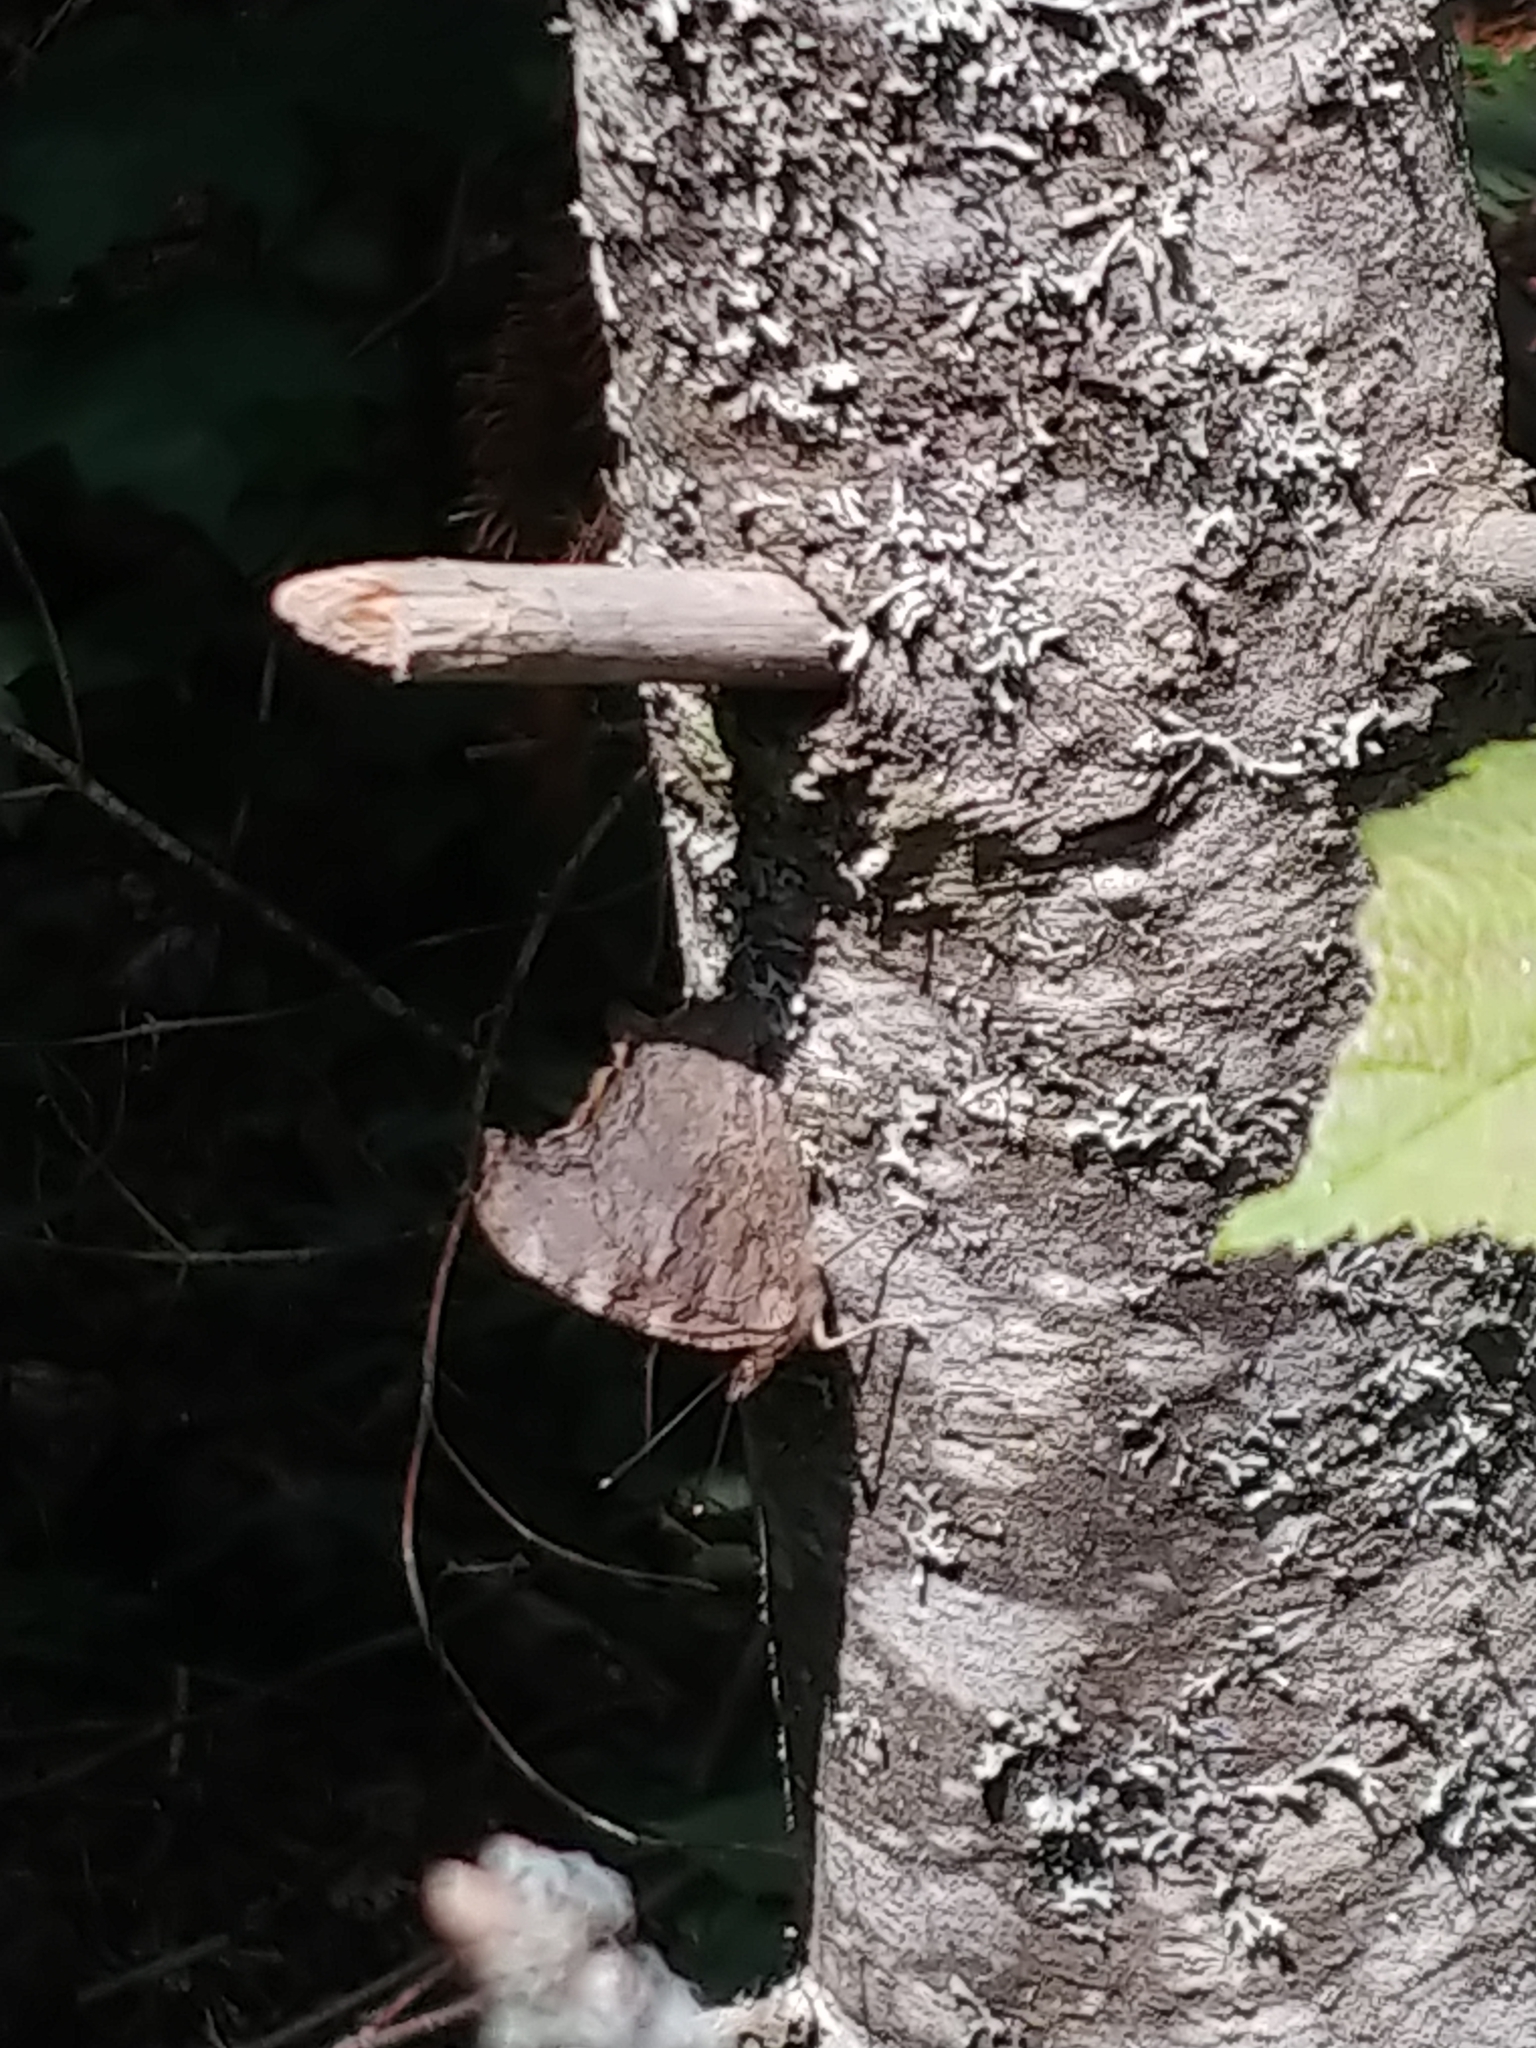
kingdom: Animalia
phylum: Arthropoda
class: Insecta
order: Lepidoptera
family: Nymphalidae
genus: Polygonia
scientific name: Polygonia vaualbum
